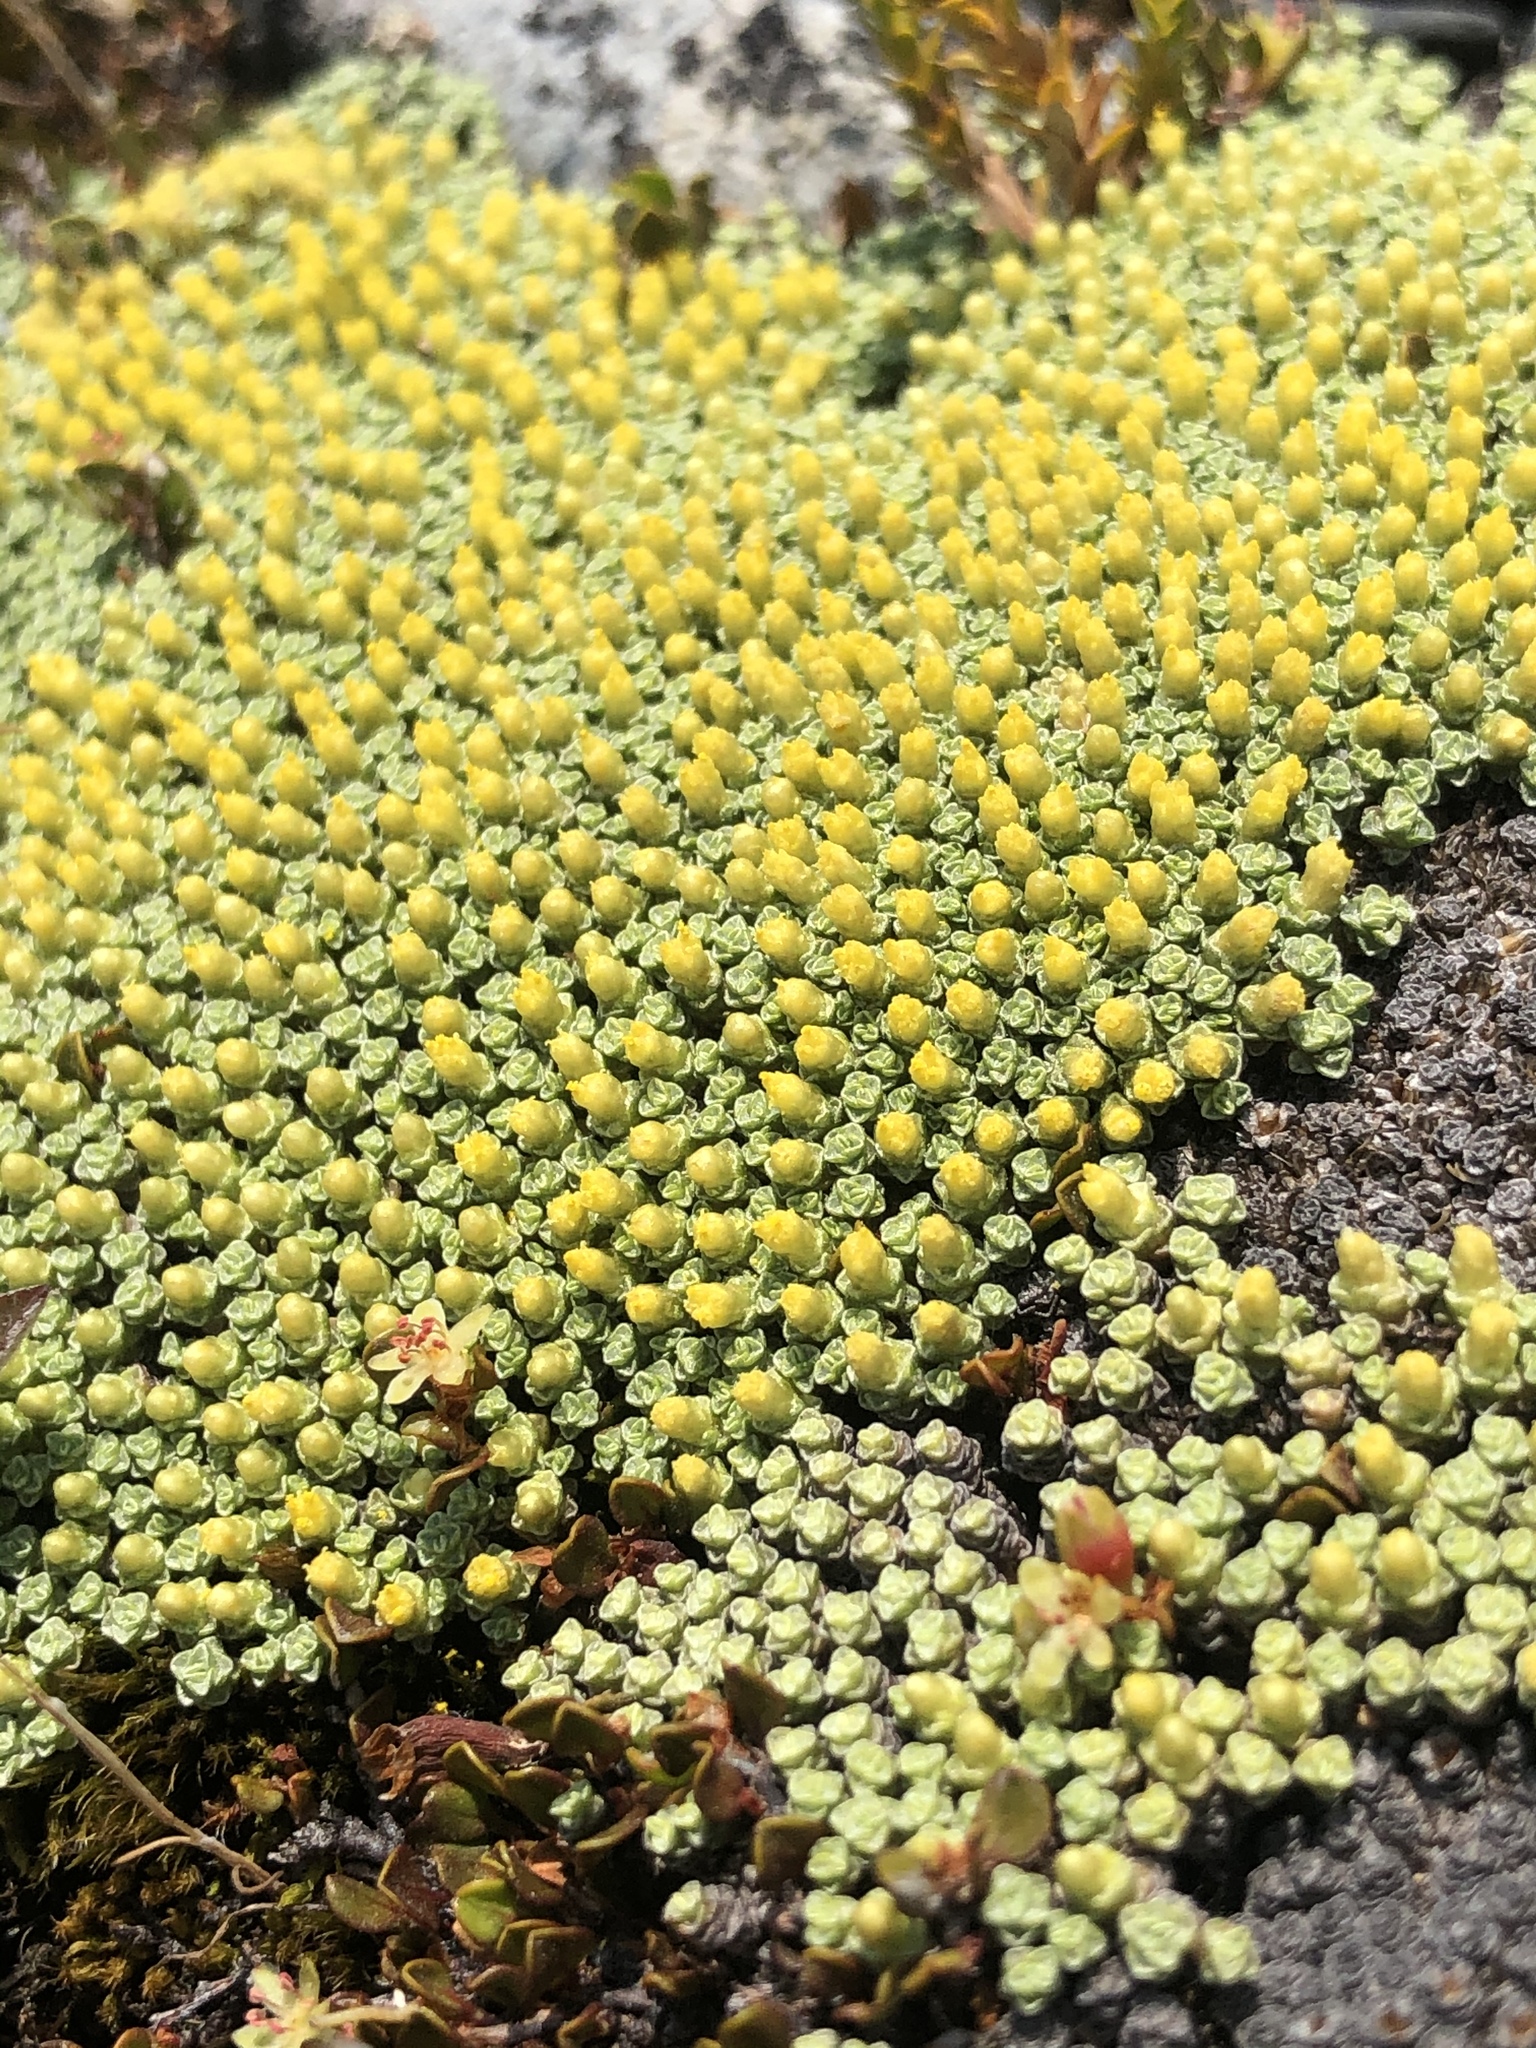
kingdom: Plantae
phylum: Tracheophyta
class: Magnoliopsida
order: Asterales
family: Asteraceae
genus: Raoulia
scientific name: Raoulia australis
